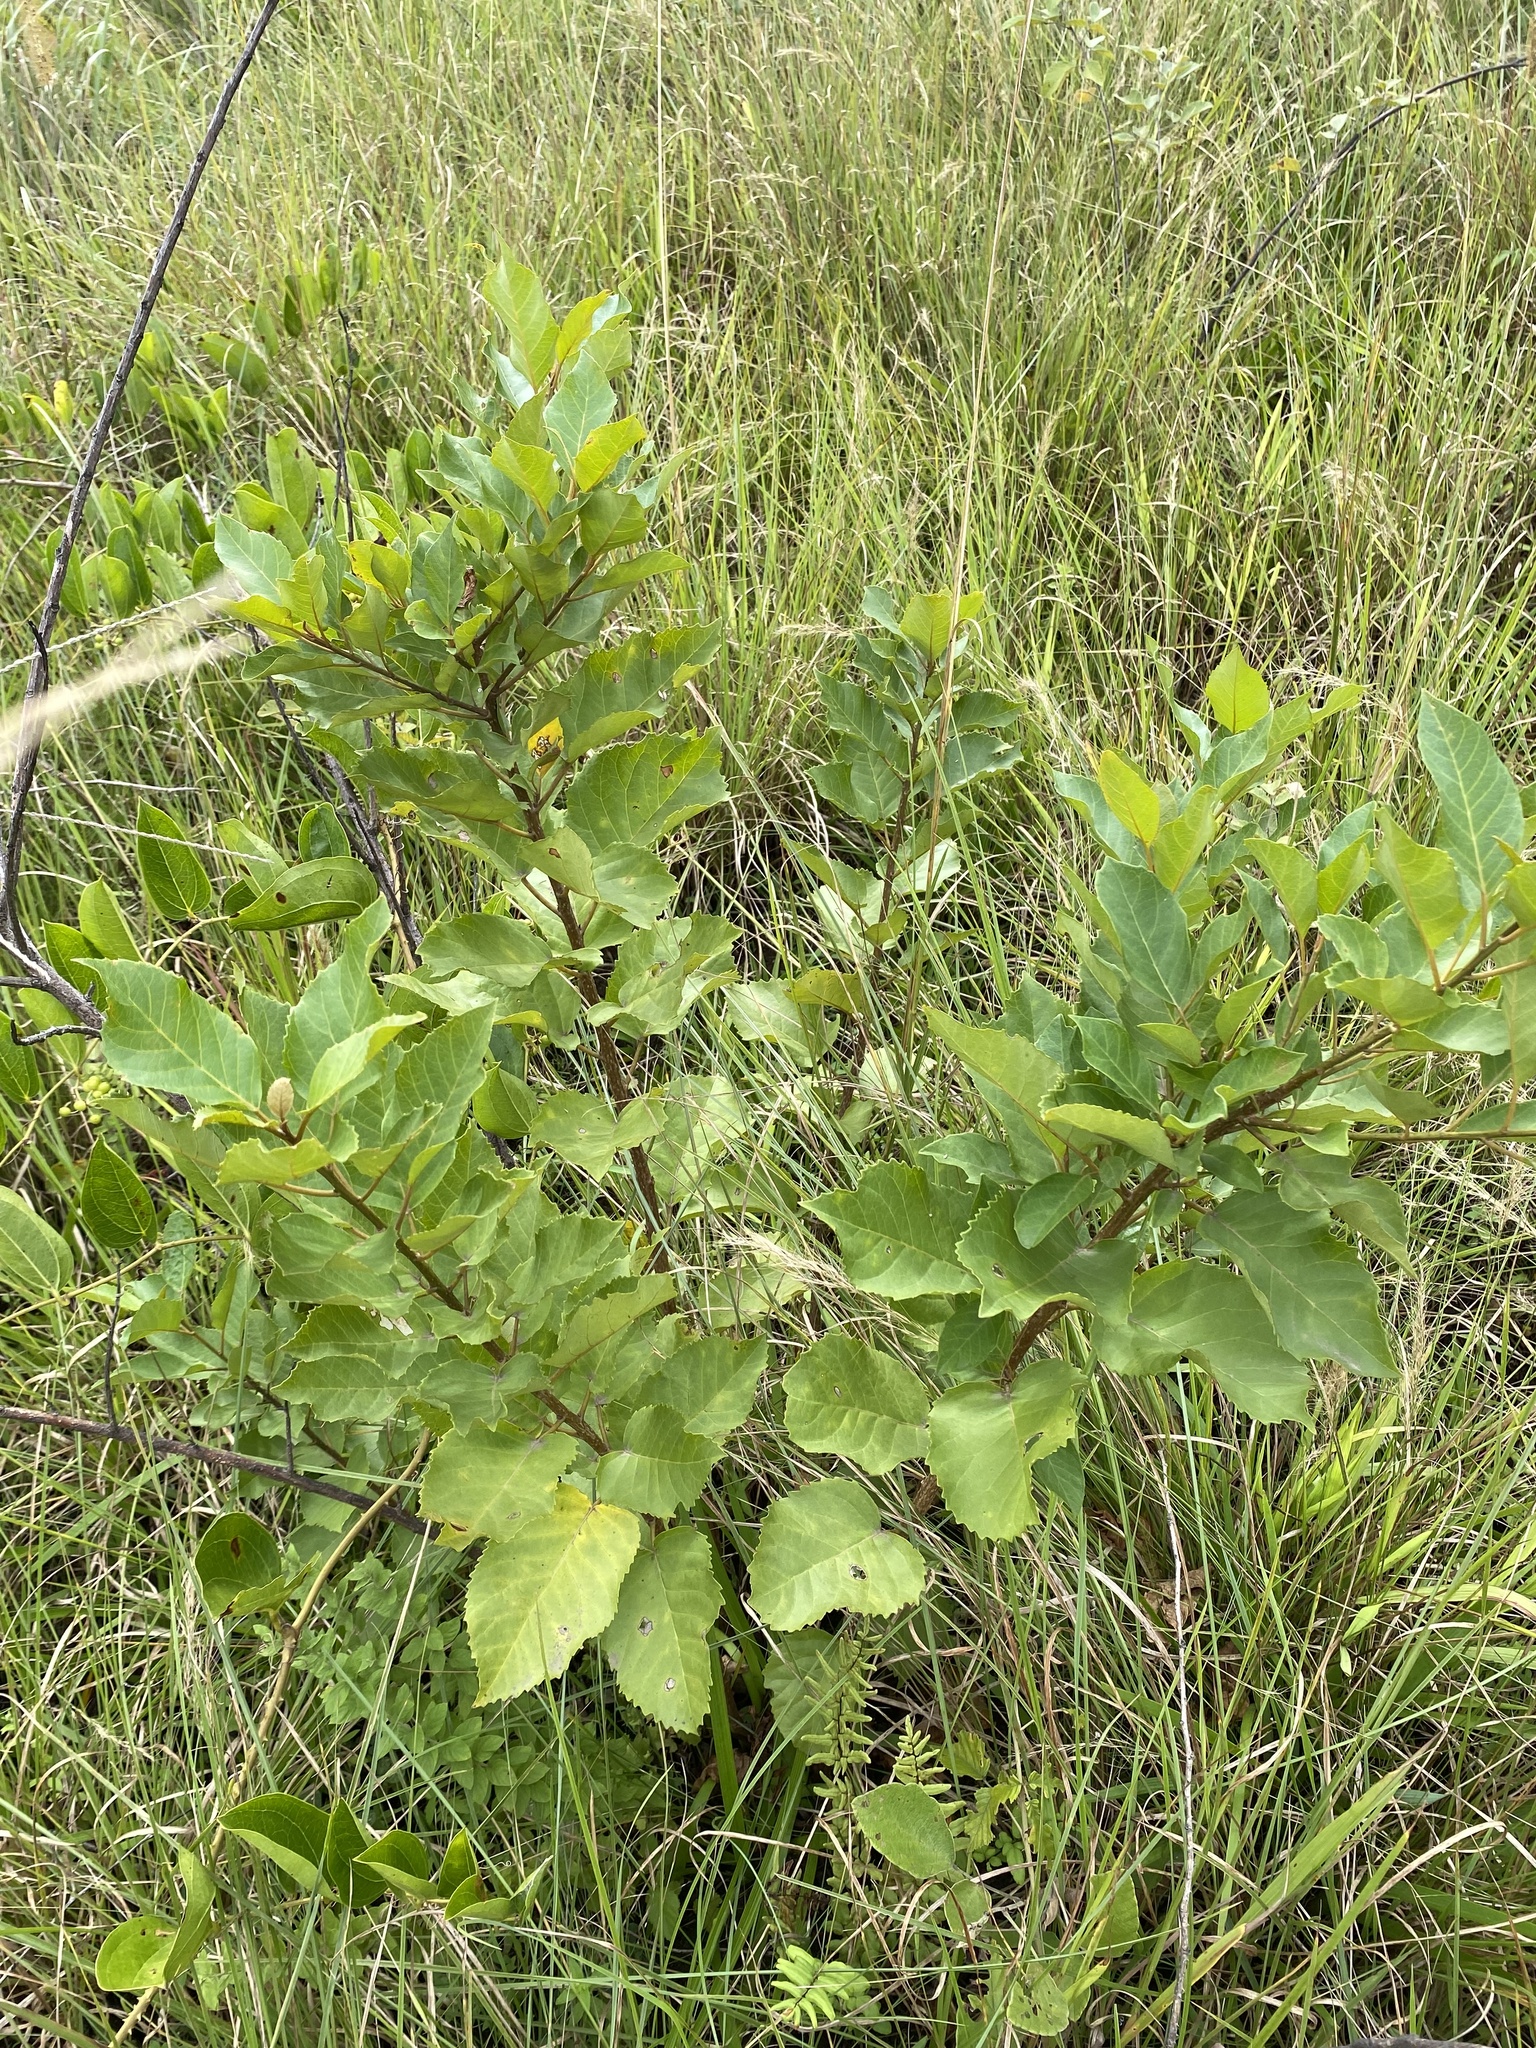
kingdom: Plantae
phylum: Tracheophyta
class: Magnoliopsida
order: Ericales
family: Primulaceae
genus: Maesa
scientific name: Maesa lanceolata
